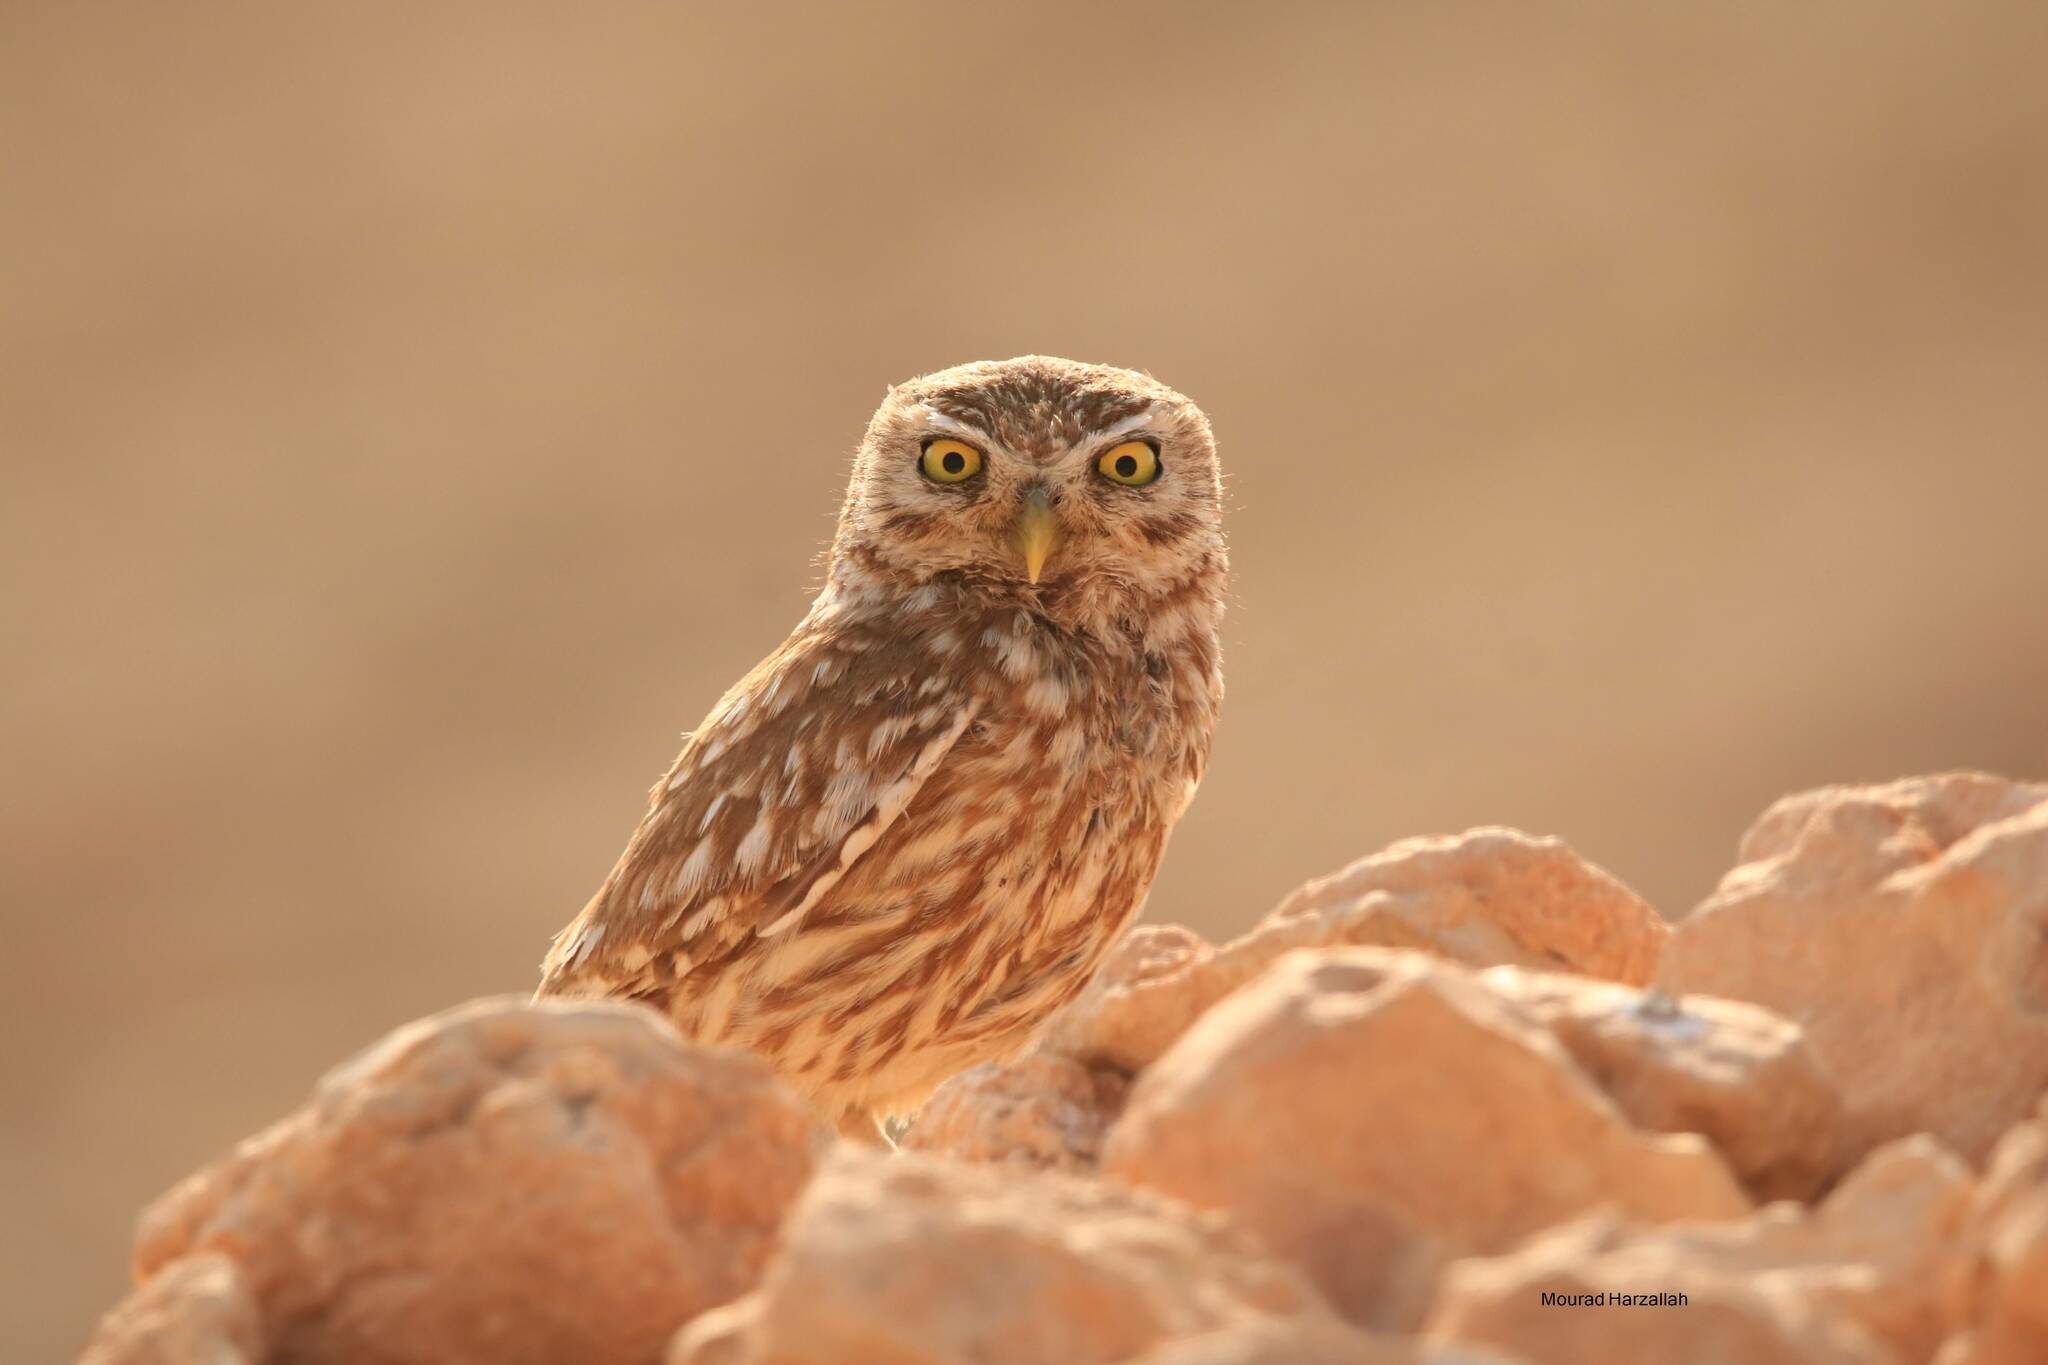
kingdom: Animalia
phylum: Chordata
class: Aves
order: Strigiformes
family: Strigidae
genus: Athene
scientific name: Athene noctua
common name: Little owl
